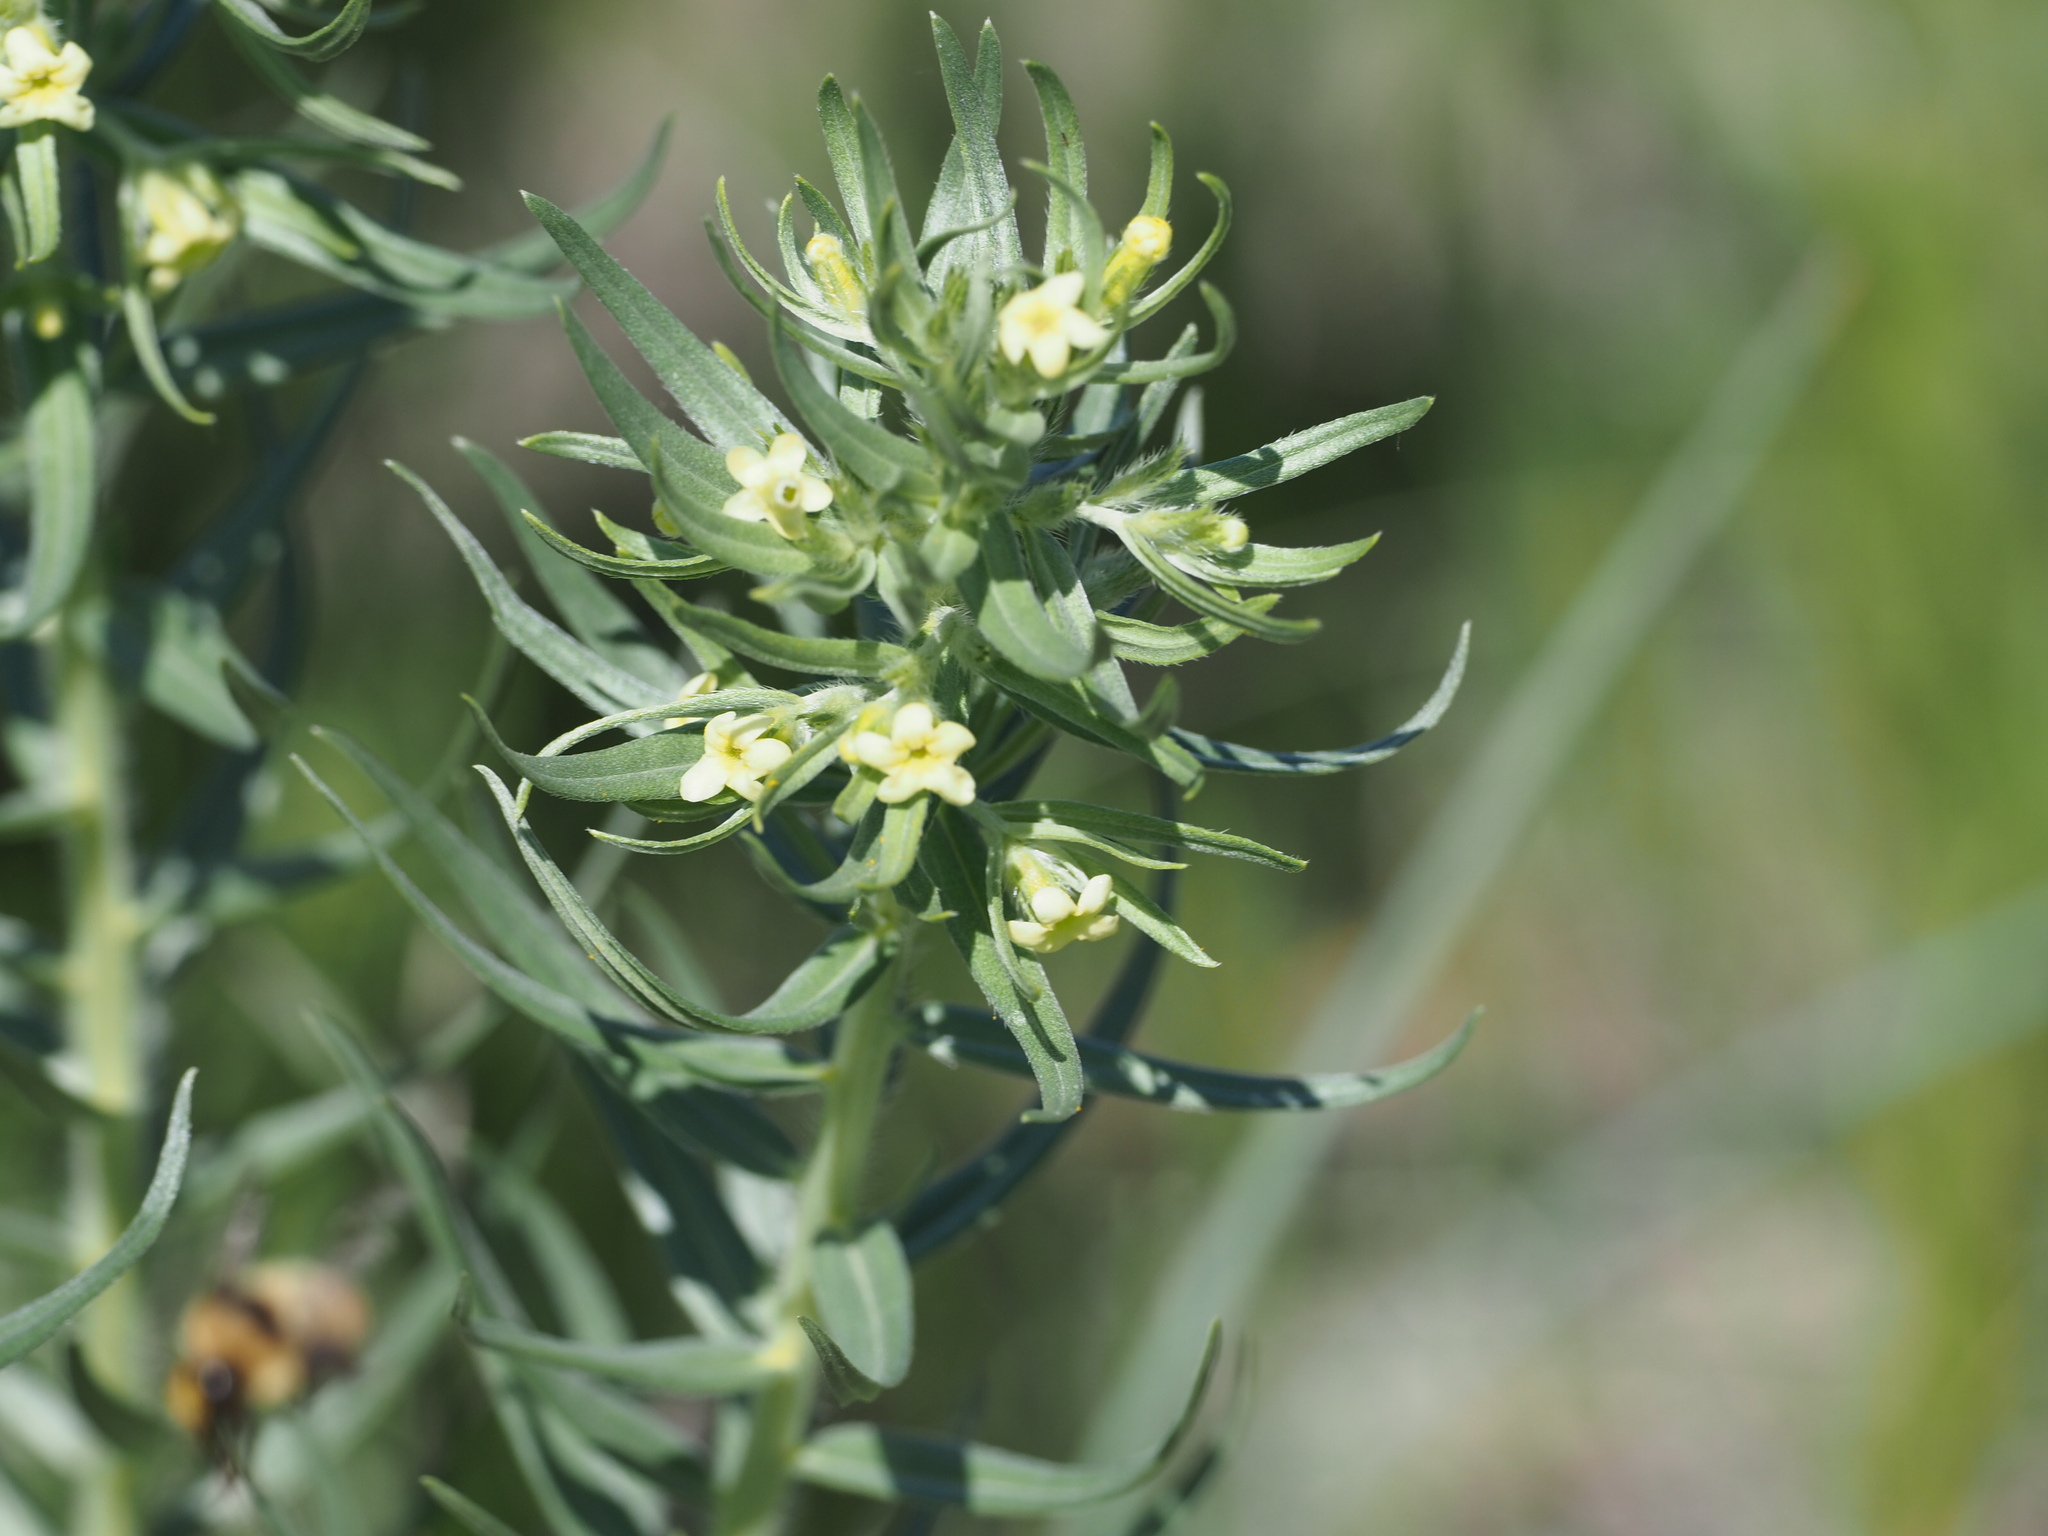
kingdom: Plantae
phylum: Tracheophyta
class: Magnoliopsida
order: Boraginales
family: Boraginaceae
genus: Lithospermum
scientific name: Lithospermum ruderale
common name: Western gromwell
